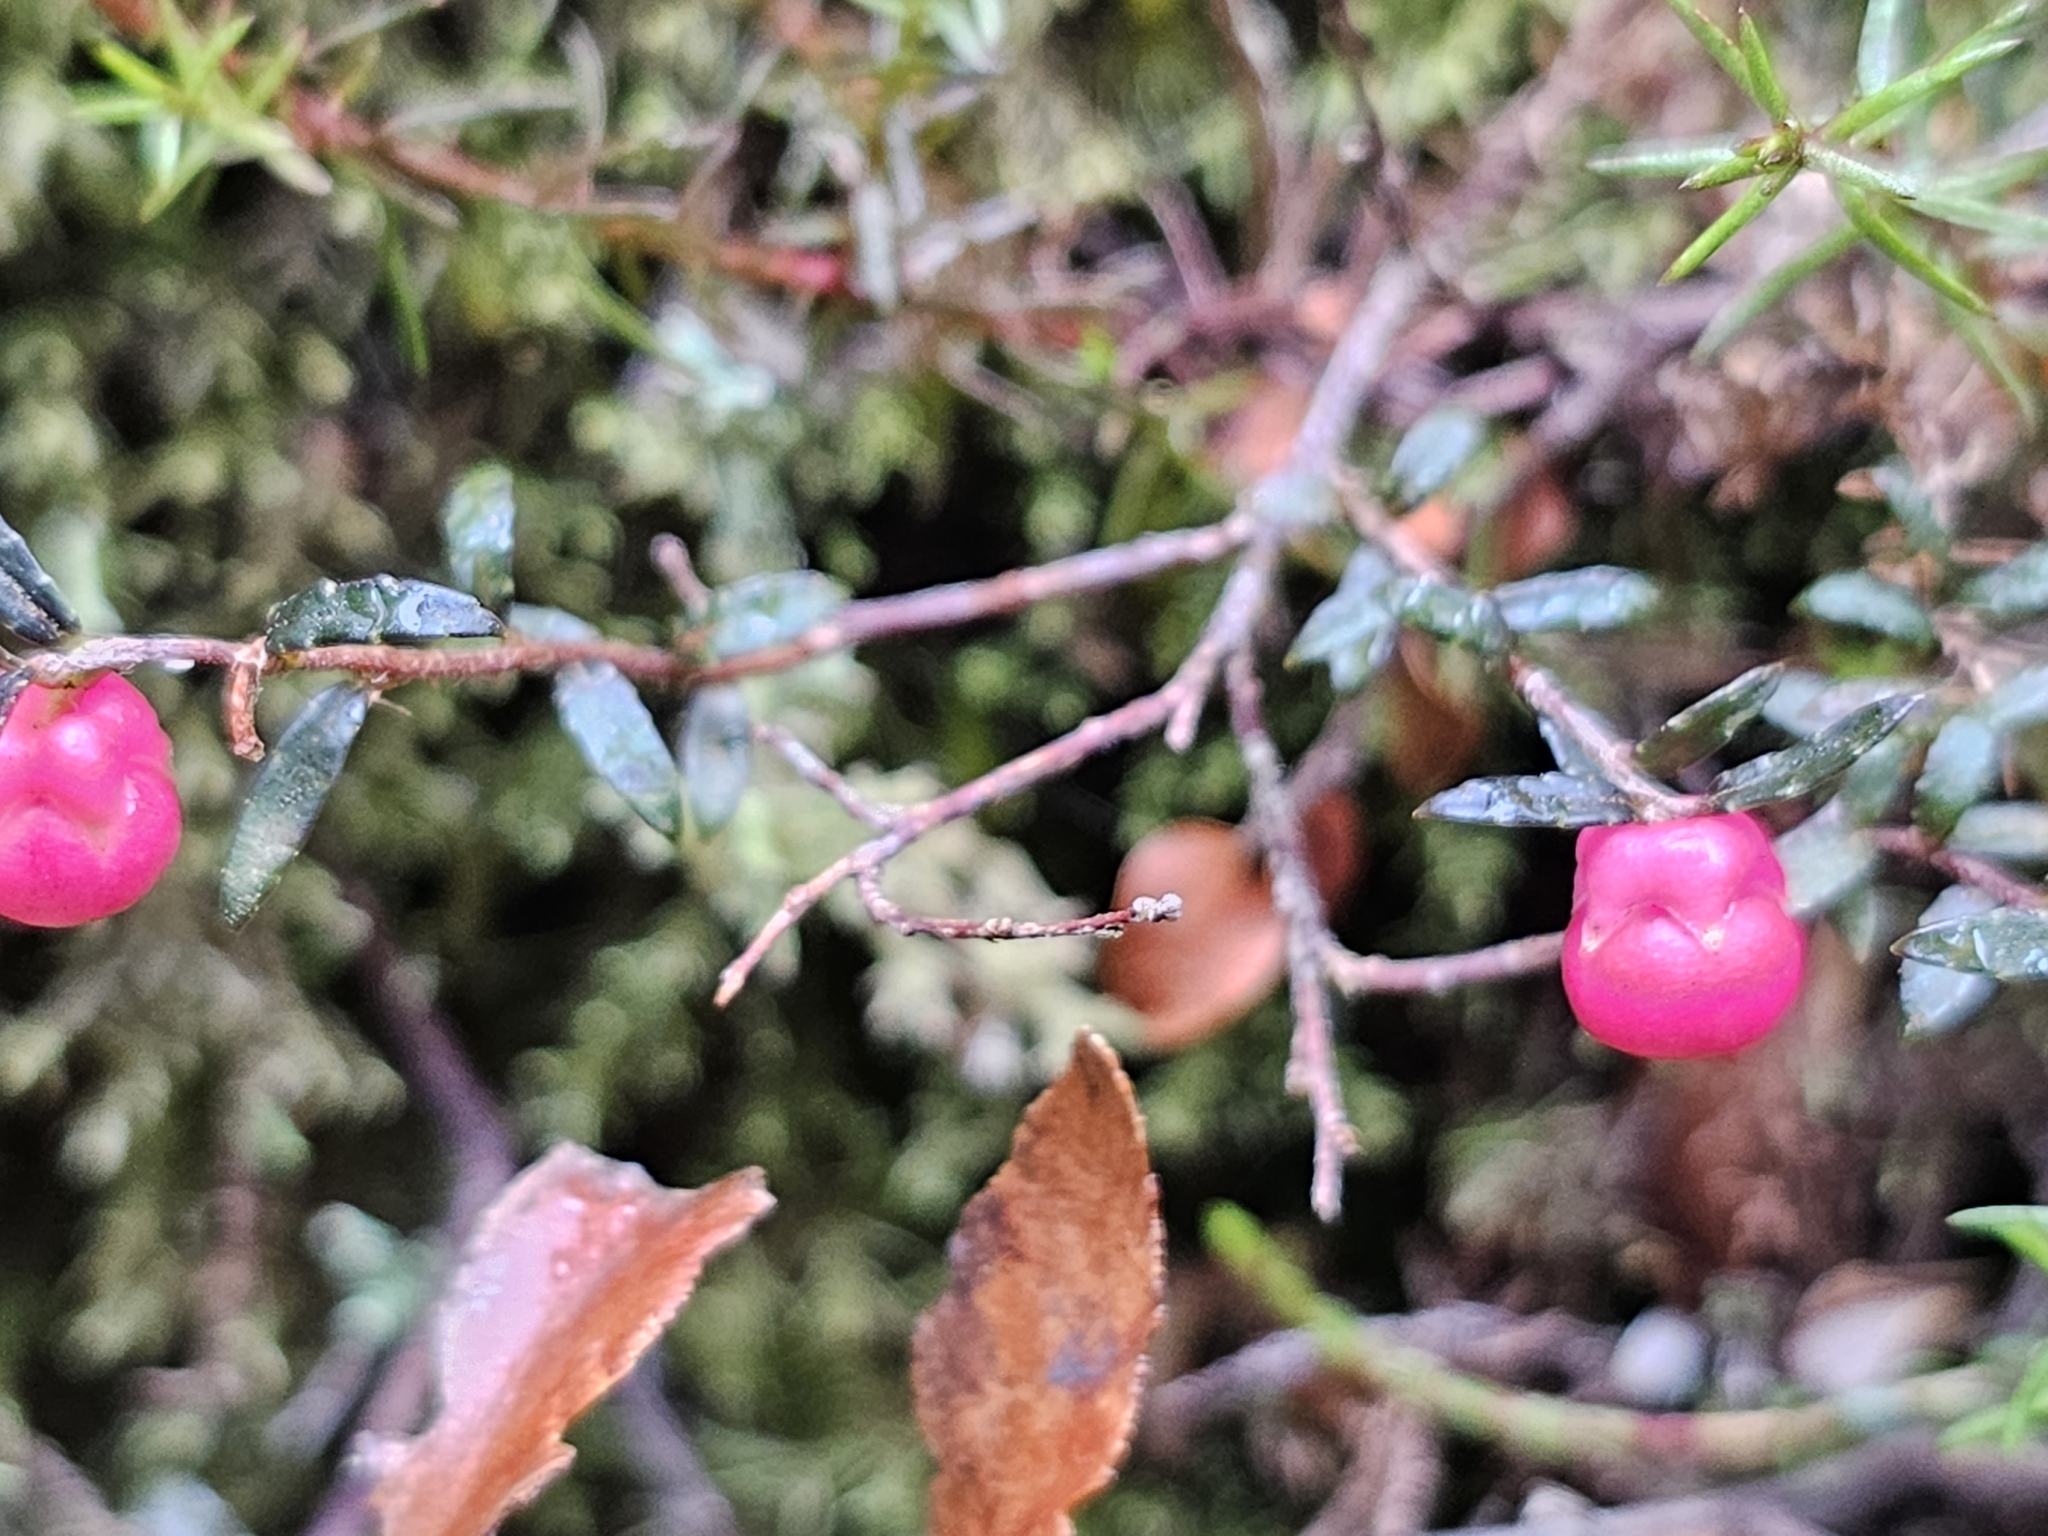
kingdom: Plantae
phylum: Tracheophyta
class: Magnoliopsida
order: Ericales
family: Ericaceae
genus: Gaultheria
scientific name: Gaultheria macrostigma
